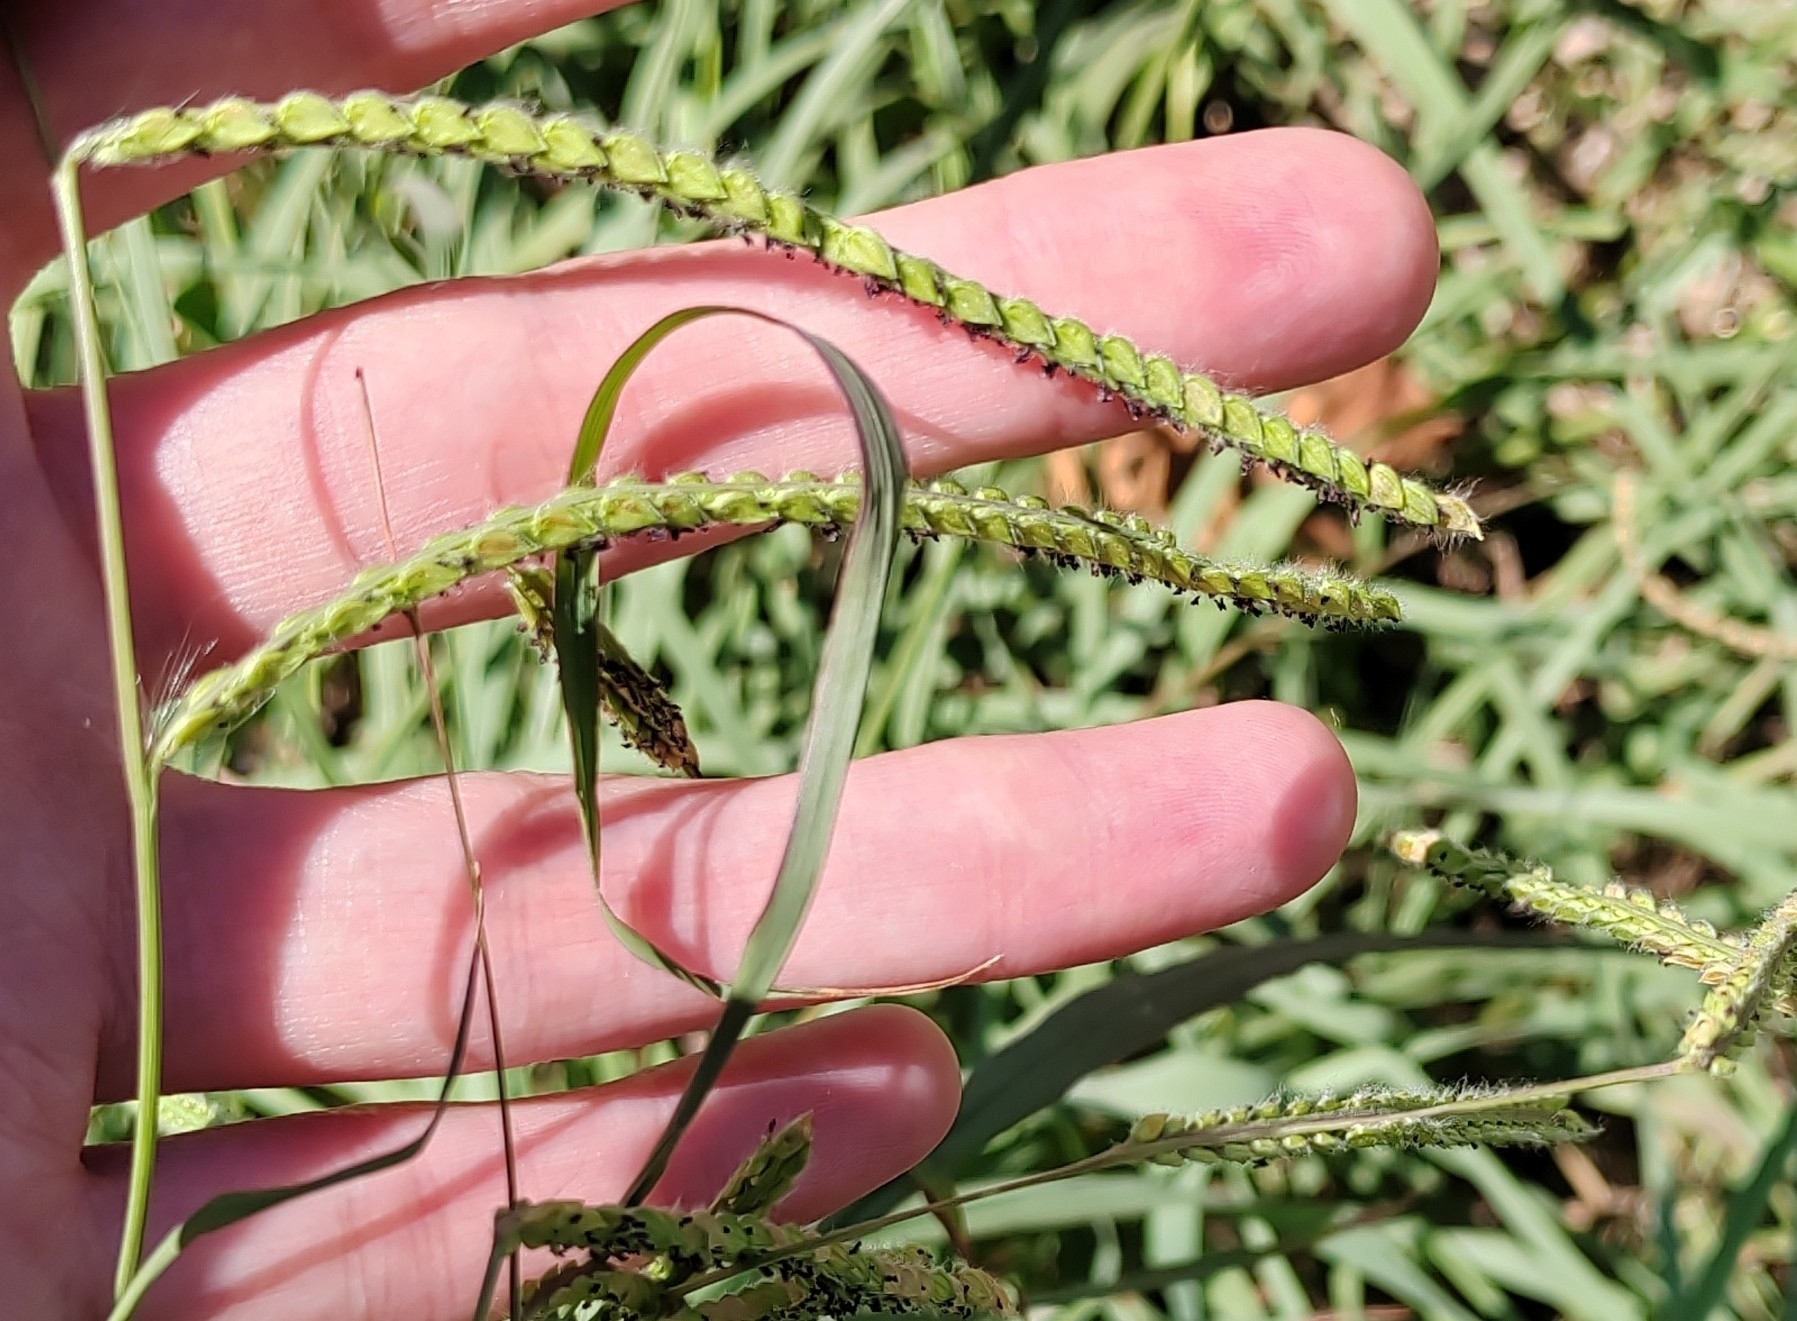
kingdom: Plantae
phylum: Tracheophyta
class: Liliopsida
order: Poales
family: Poaceae
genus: Paspalum
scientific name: Paspalum dilatatum
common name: Dallisgrass
